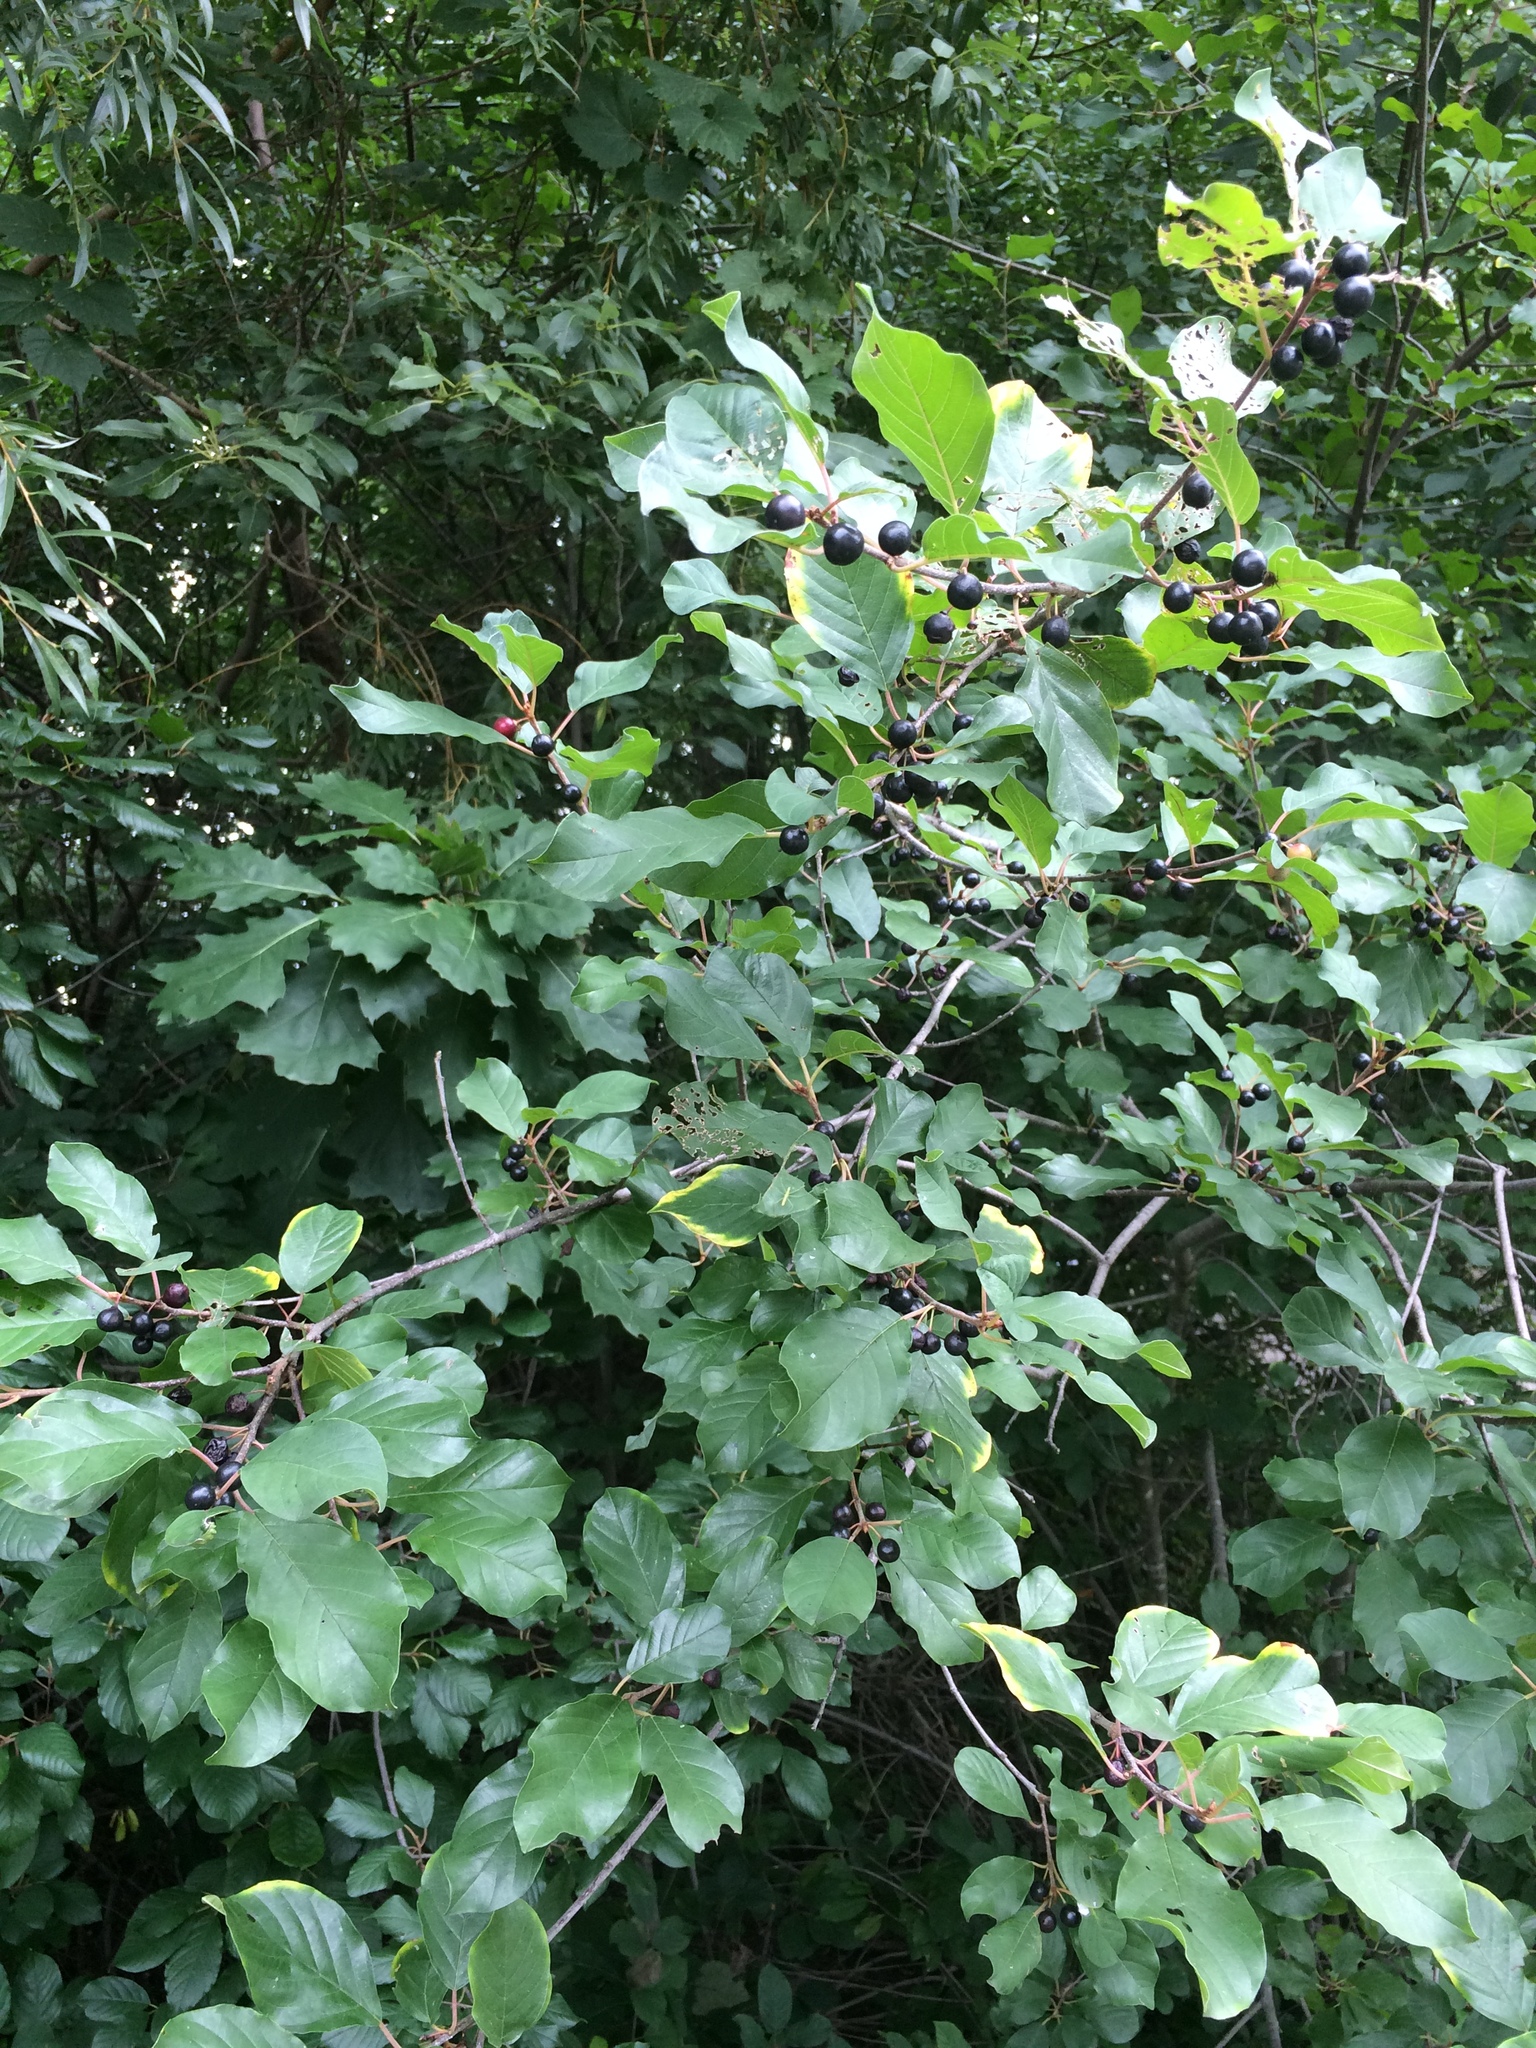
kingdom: Plantae
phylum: Tracheophyta
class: Magnoliopsida
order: Rosales
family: Rhamnaceae
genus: Frangula
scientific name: Frangula alnus
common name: Alder buckthorn
